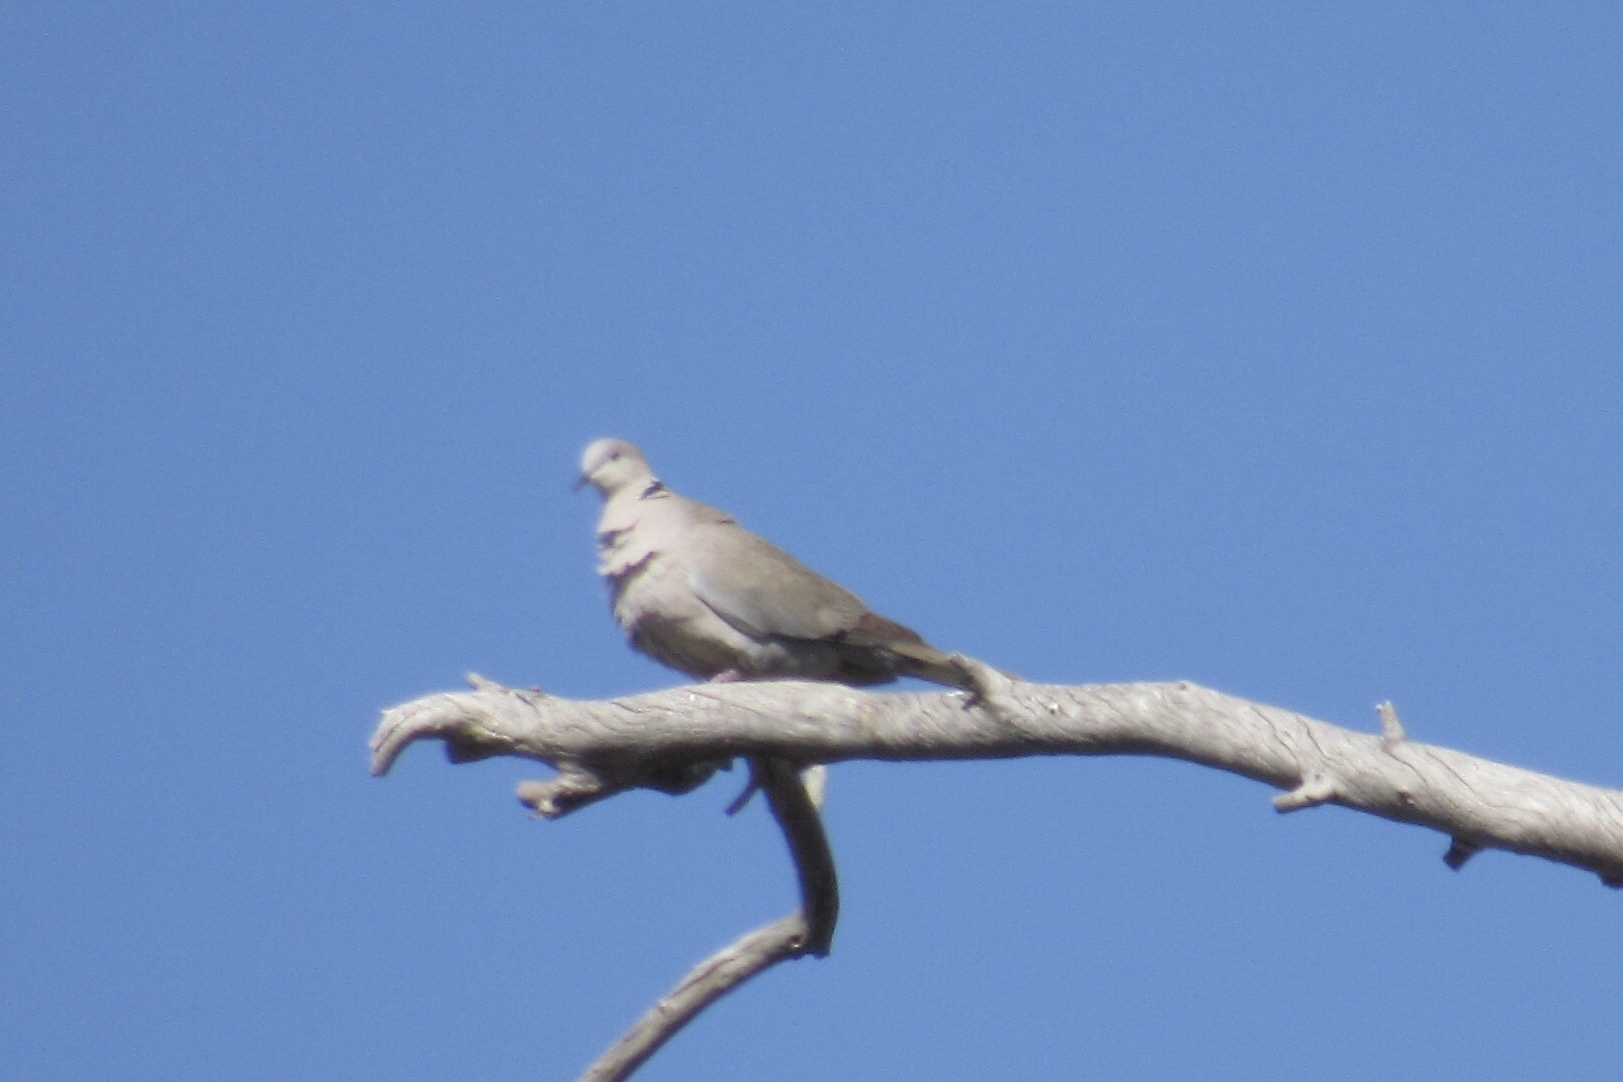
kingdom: Animalia
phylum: Chordata
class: Aves
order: Columbiformes
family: Columbidae
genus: Streptopelia
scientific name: Streptopelia decaocto
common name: Eurasian collared dove
